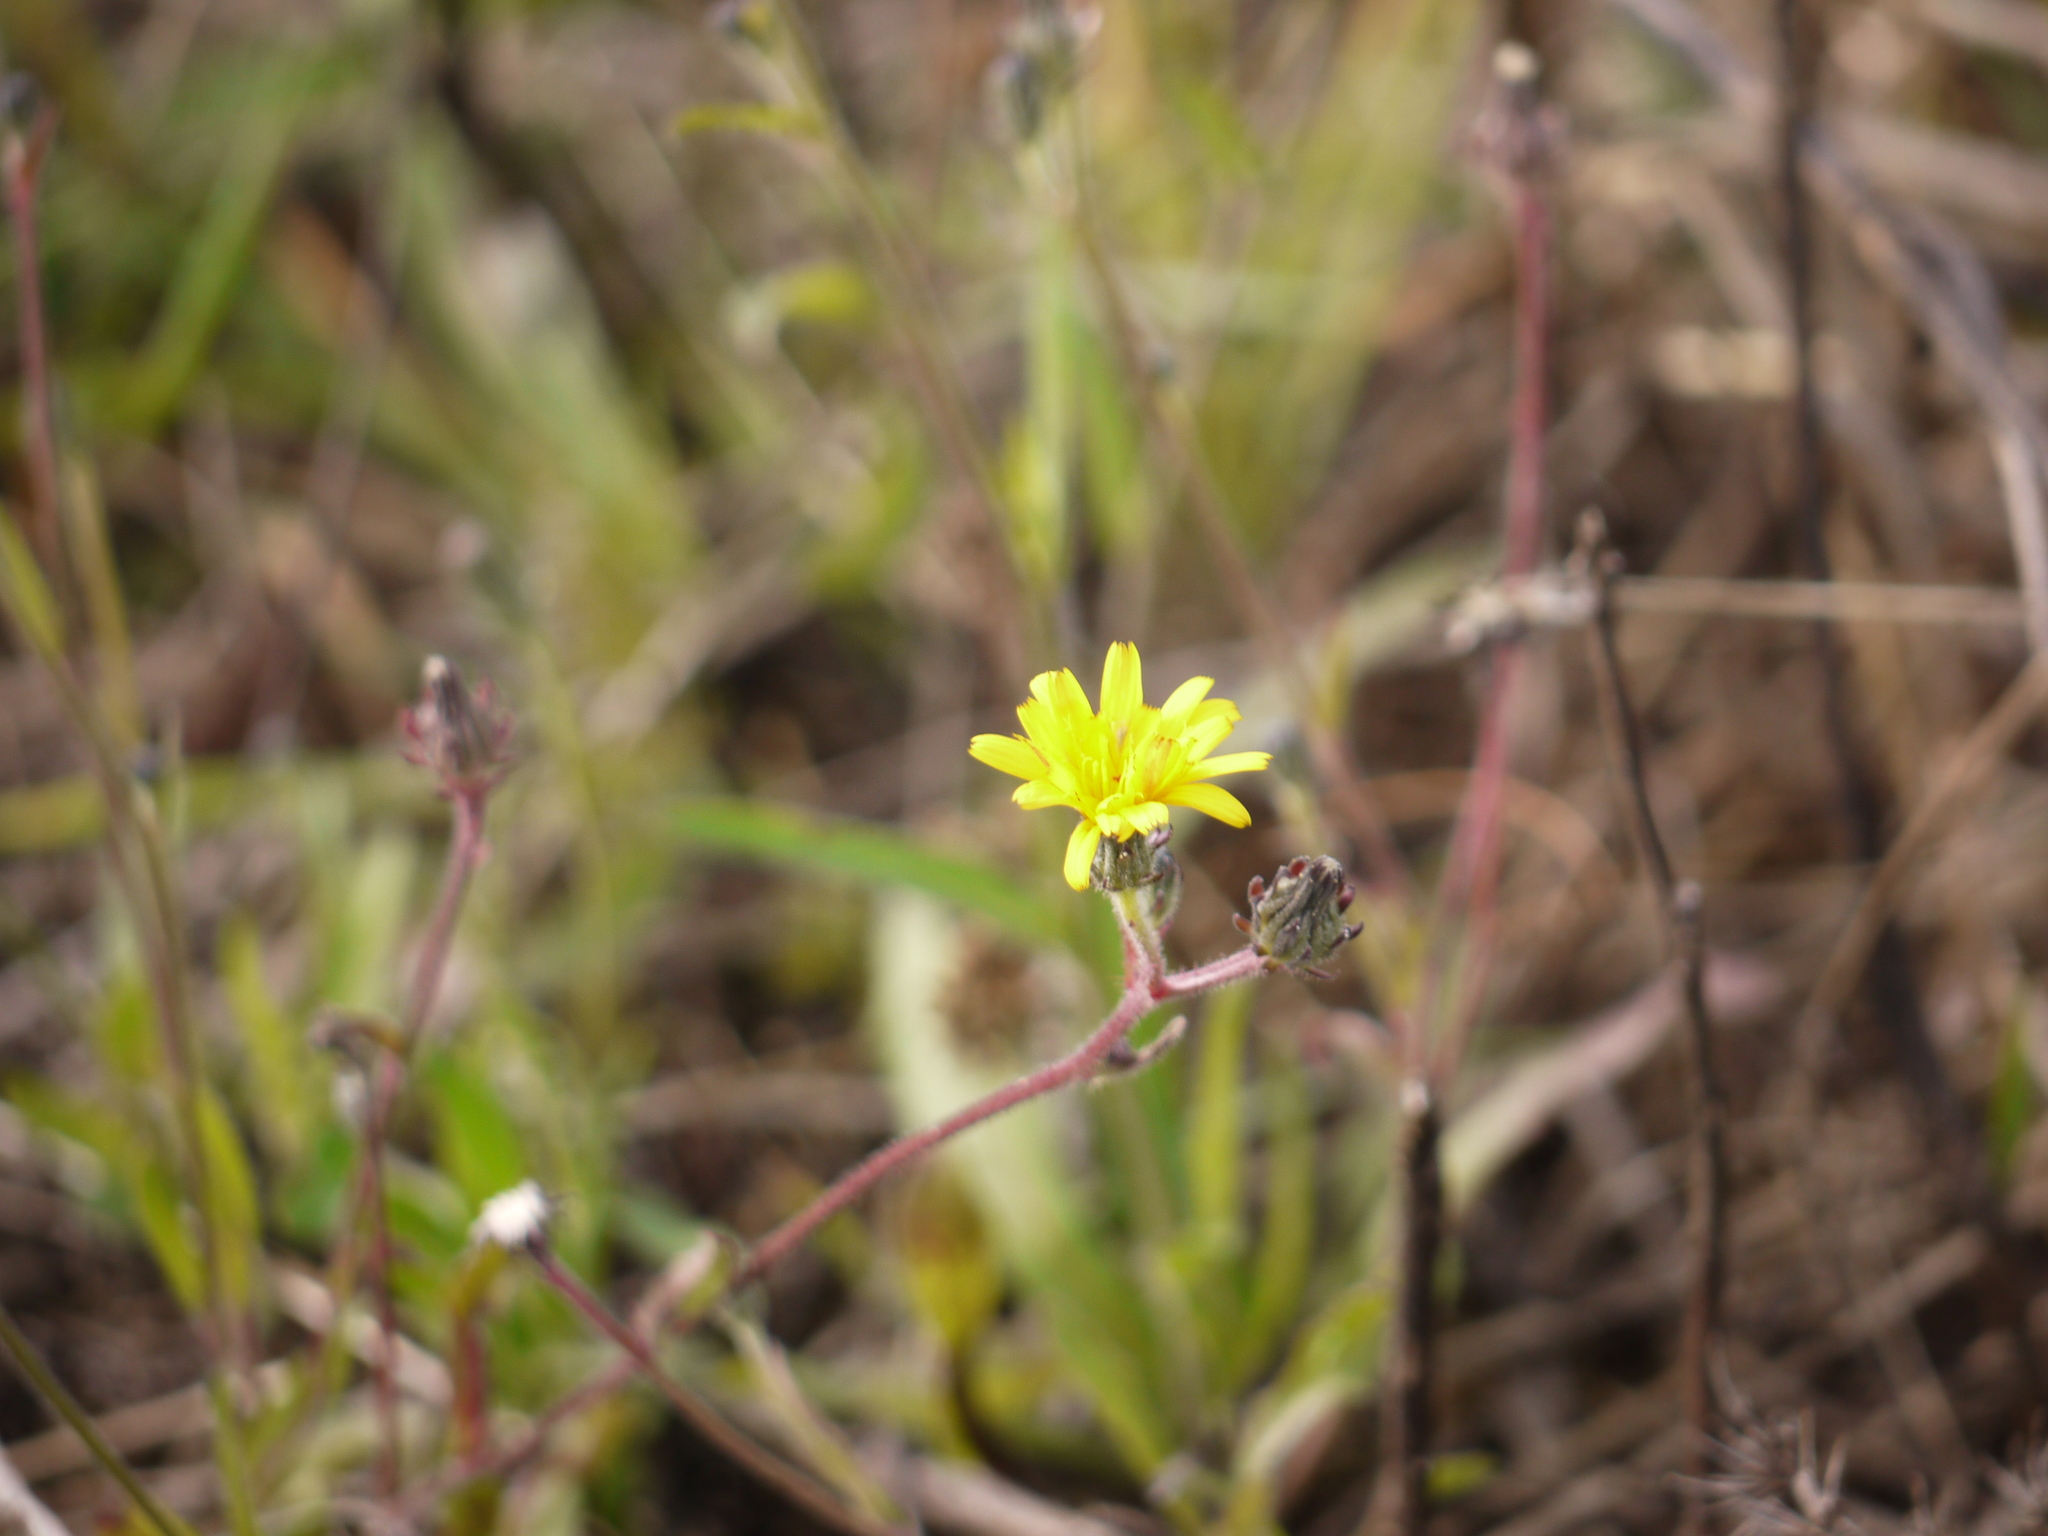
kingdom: Plantae
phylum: Tracheophyta
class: Magnoliopsida
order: Asterales
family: Asteraceae
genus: Picris
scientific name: Picris hieracioides
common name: Hawkweed oxtongue
